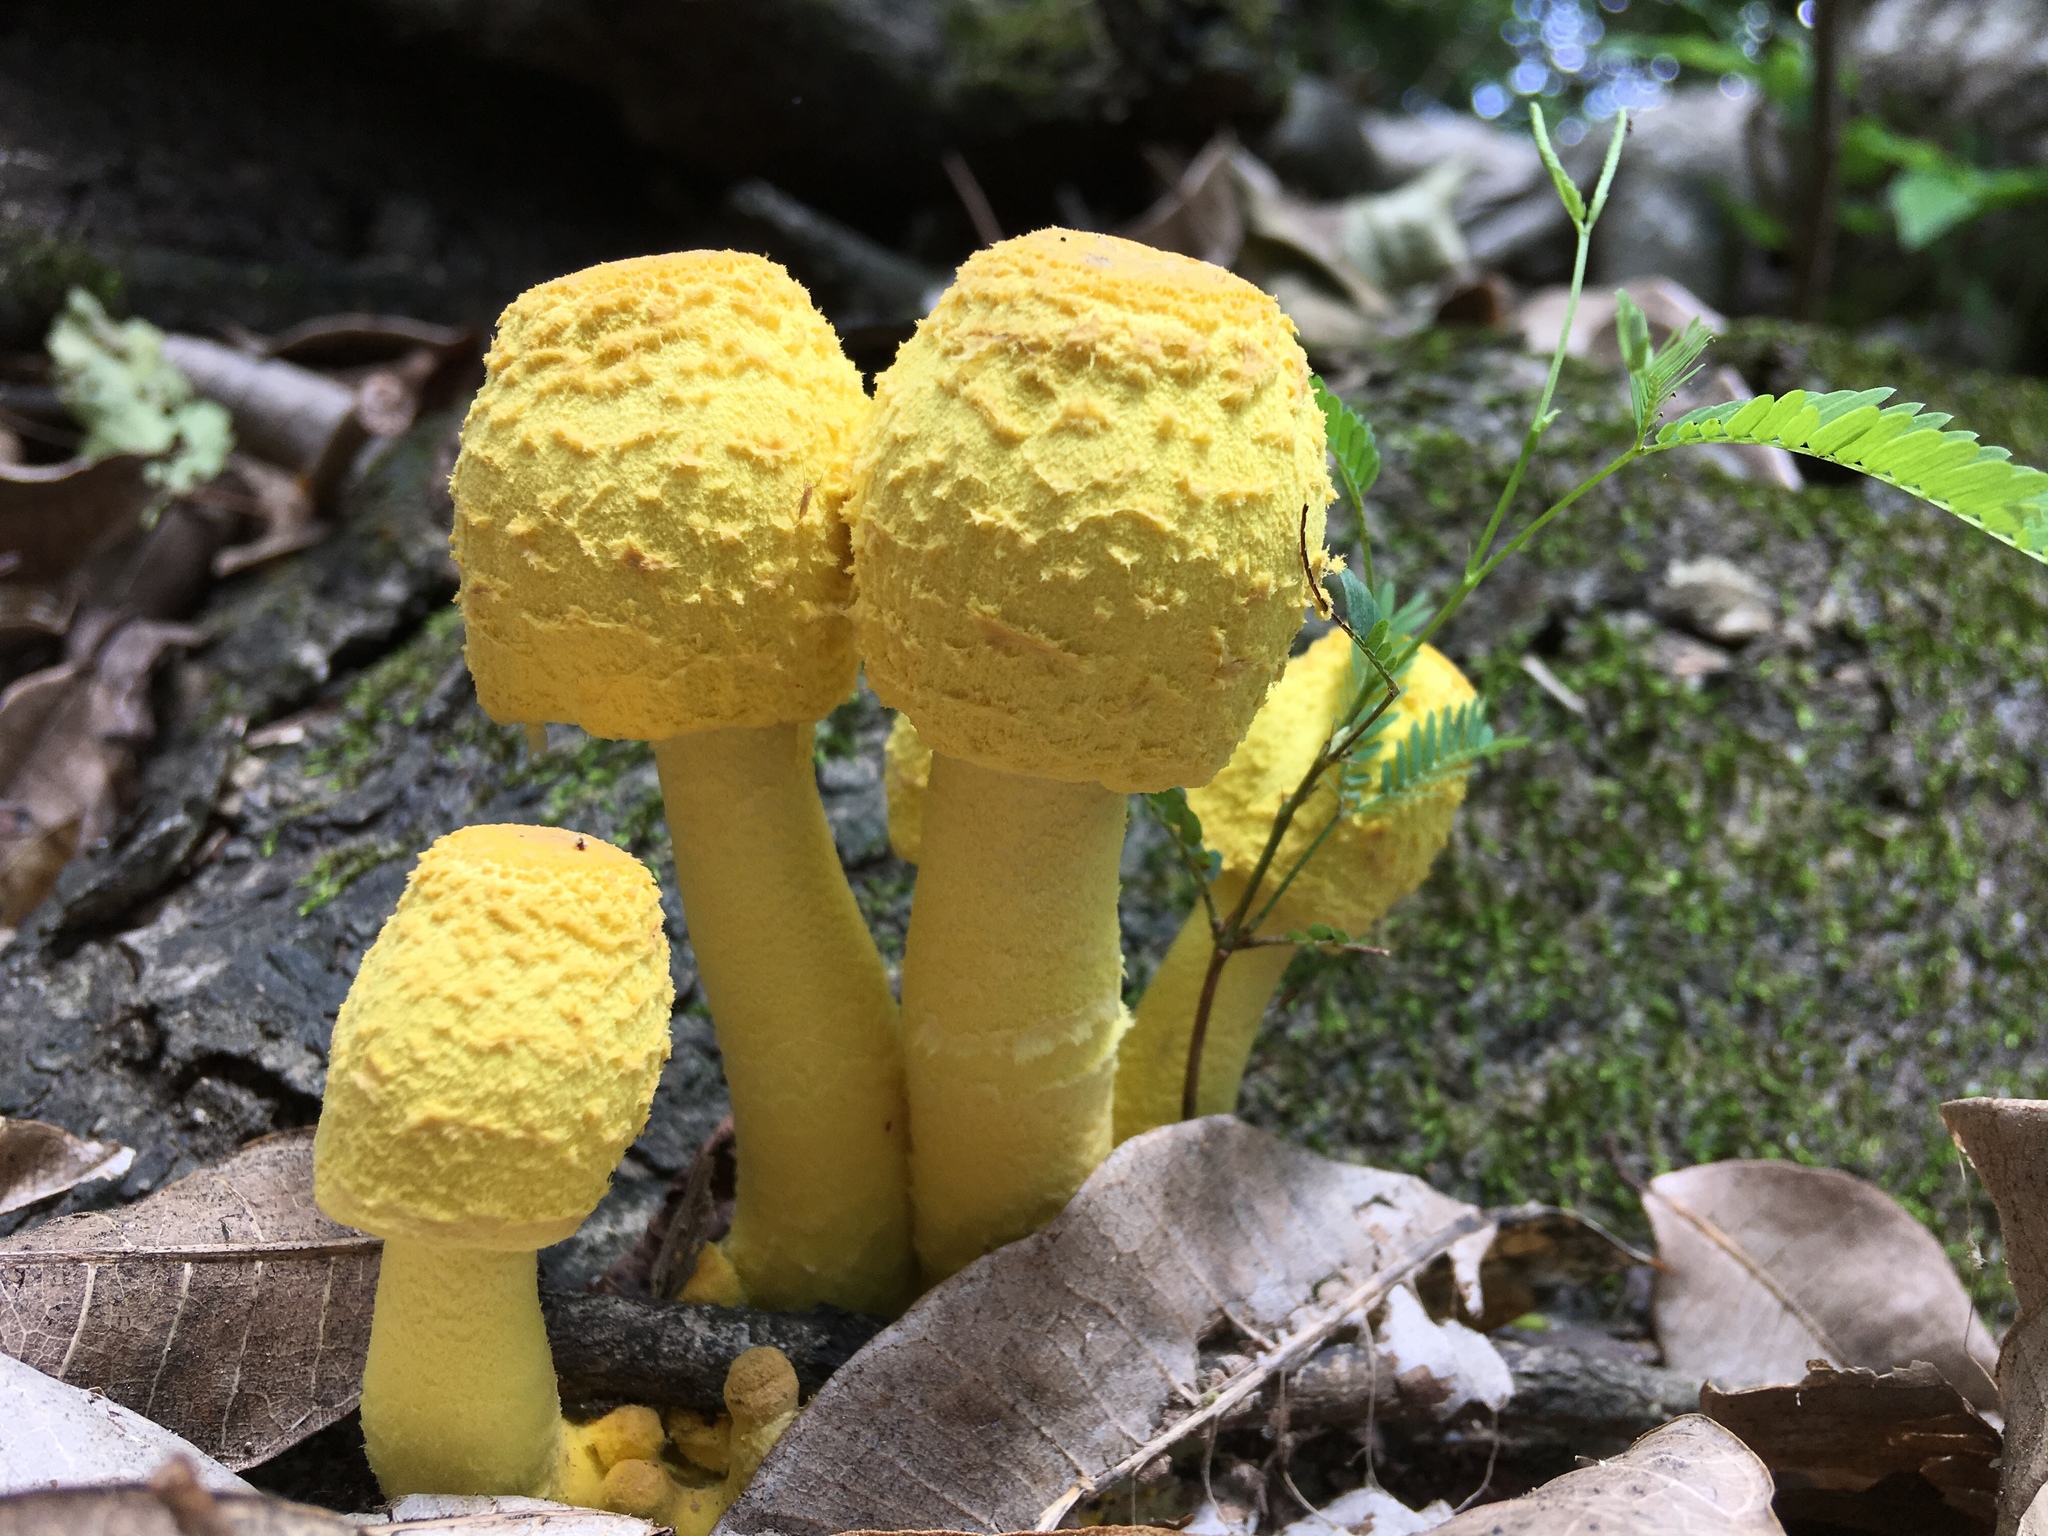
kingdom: Fungi
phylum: Basidiomycota
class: Agaricomycetes
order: Agaricales
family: Agaricaceae
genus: Leucocoprinus
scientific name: Leucocoprinus birnbaumii
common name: Plantpot dapperling
